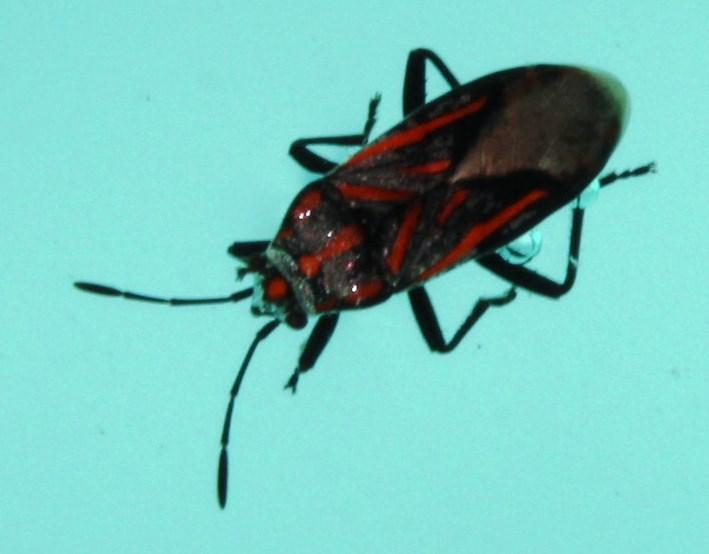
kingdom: Animalia
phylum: Arthropoda
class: Insecta
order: Hemiptera
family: Lygaeidae
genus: Spilostethus
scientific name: Spilostethus lemniscatus
